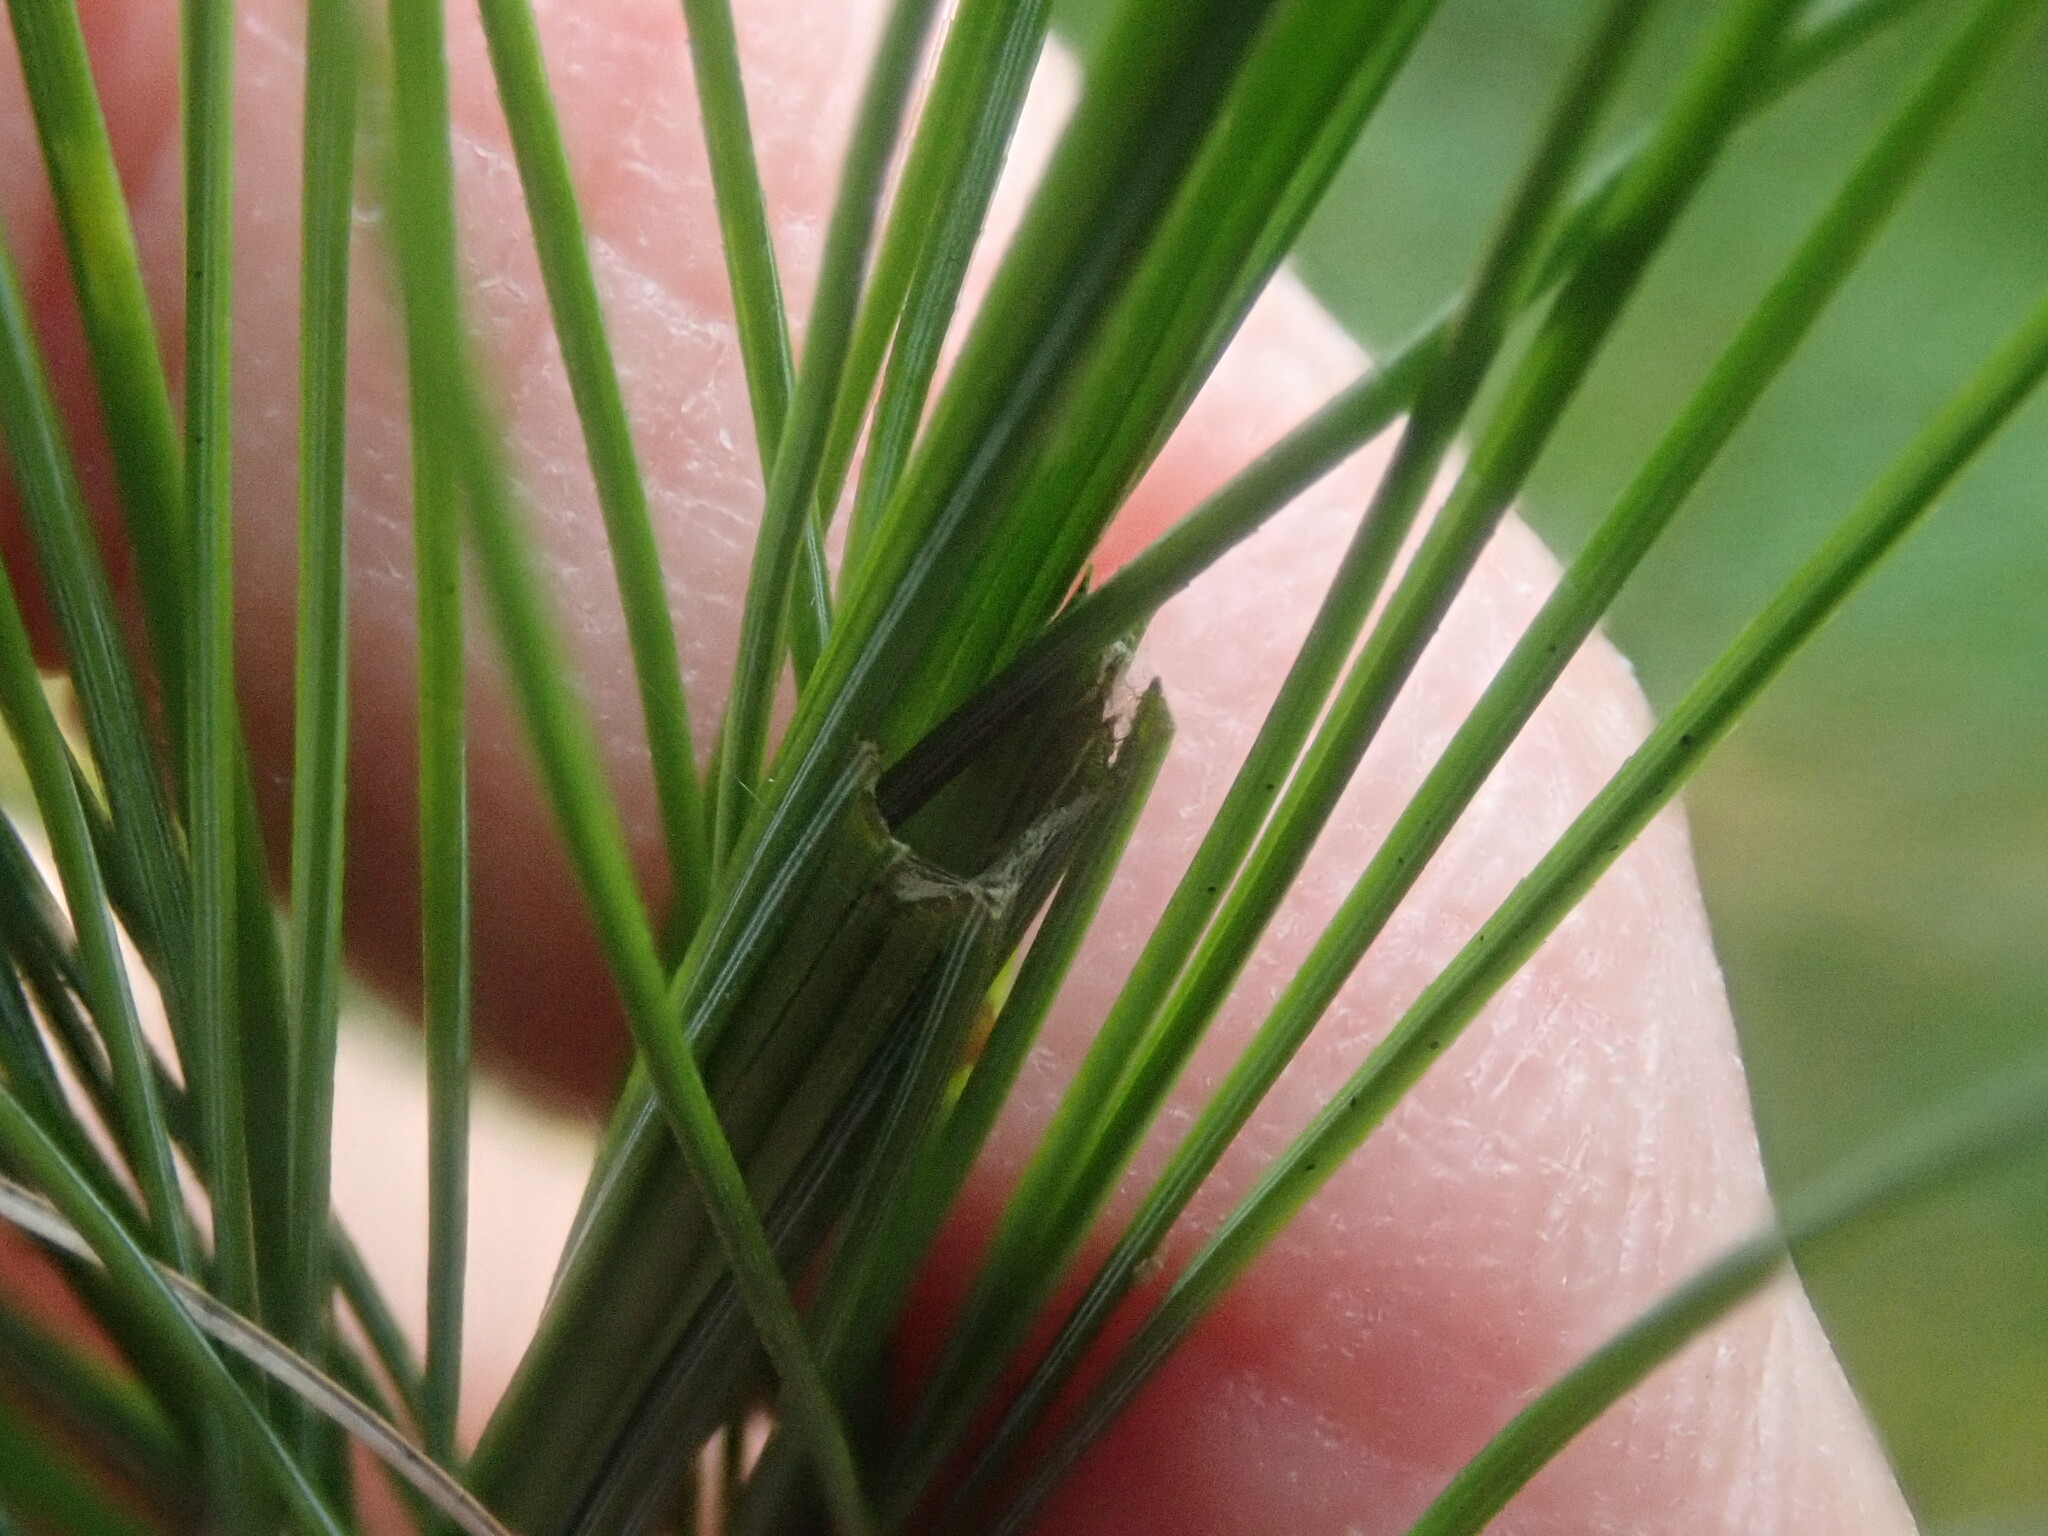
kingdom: Animalia
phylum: Arthropoda
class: Insecta
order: Lepidoptera
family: Tortricidae
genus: Argyrotaenia
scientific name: Argyrotaenia pinatubana
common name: Pine tube moth
